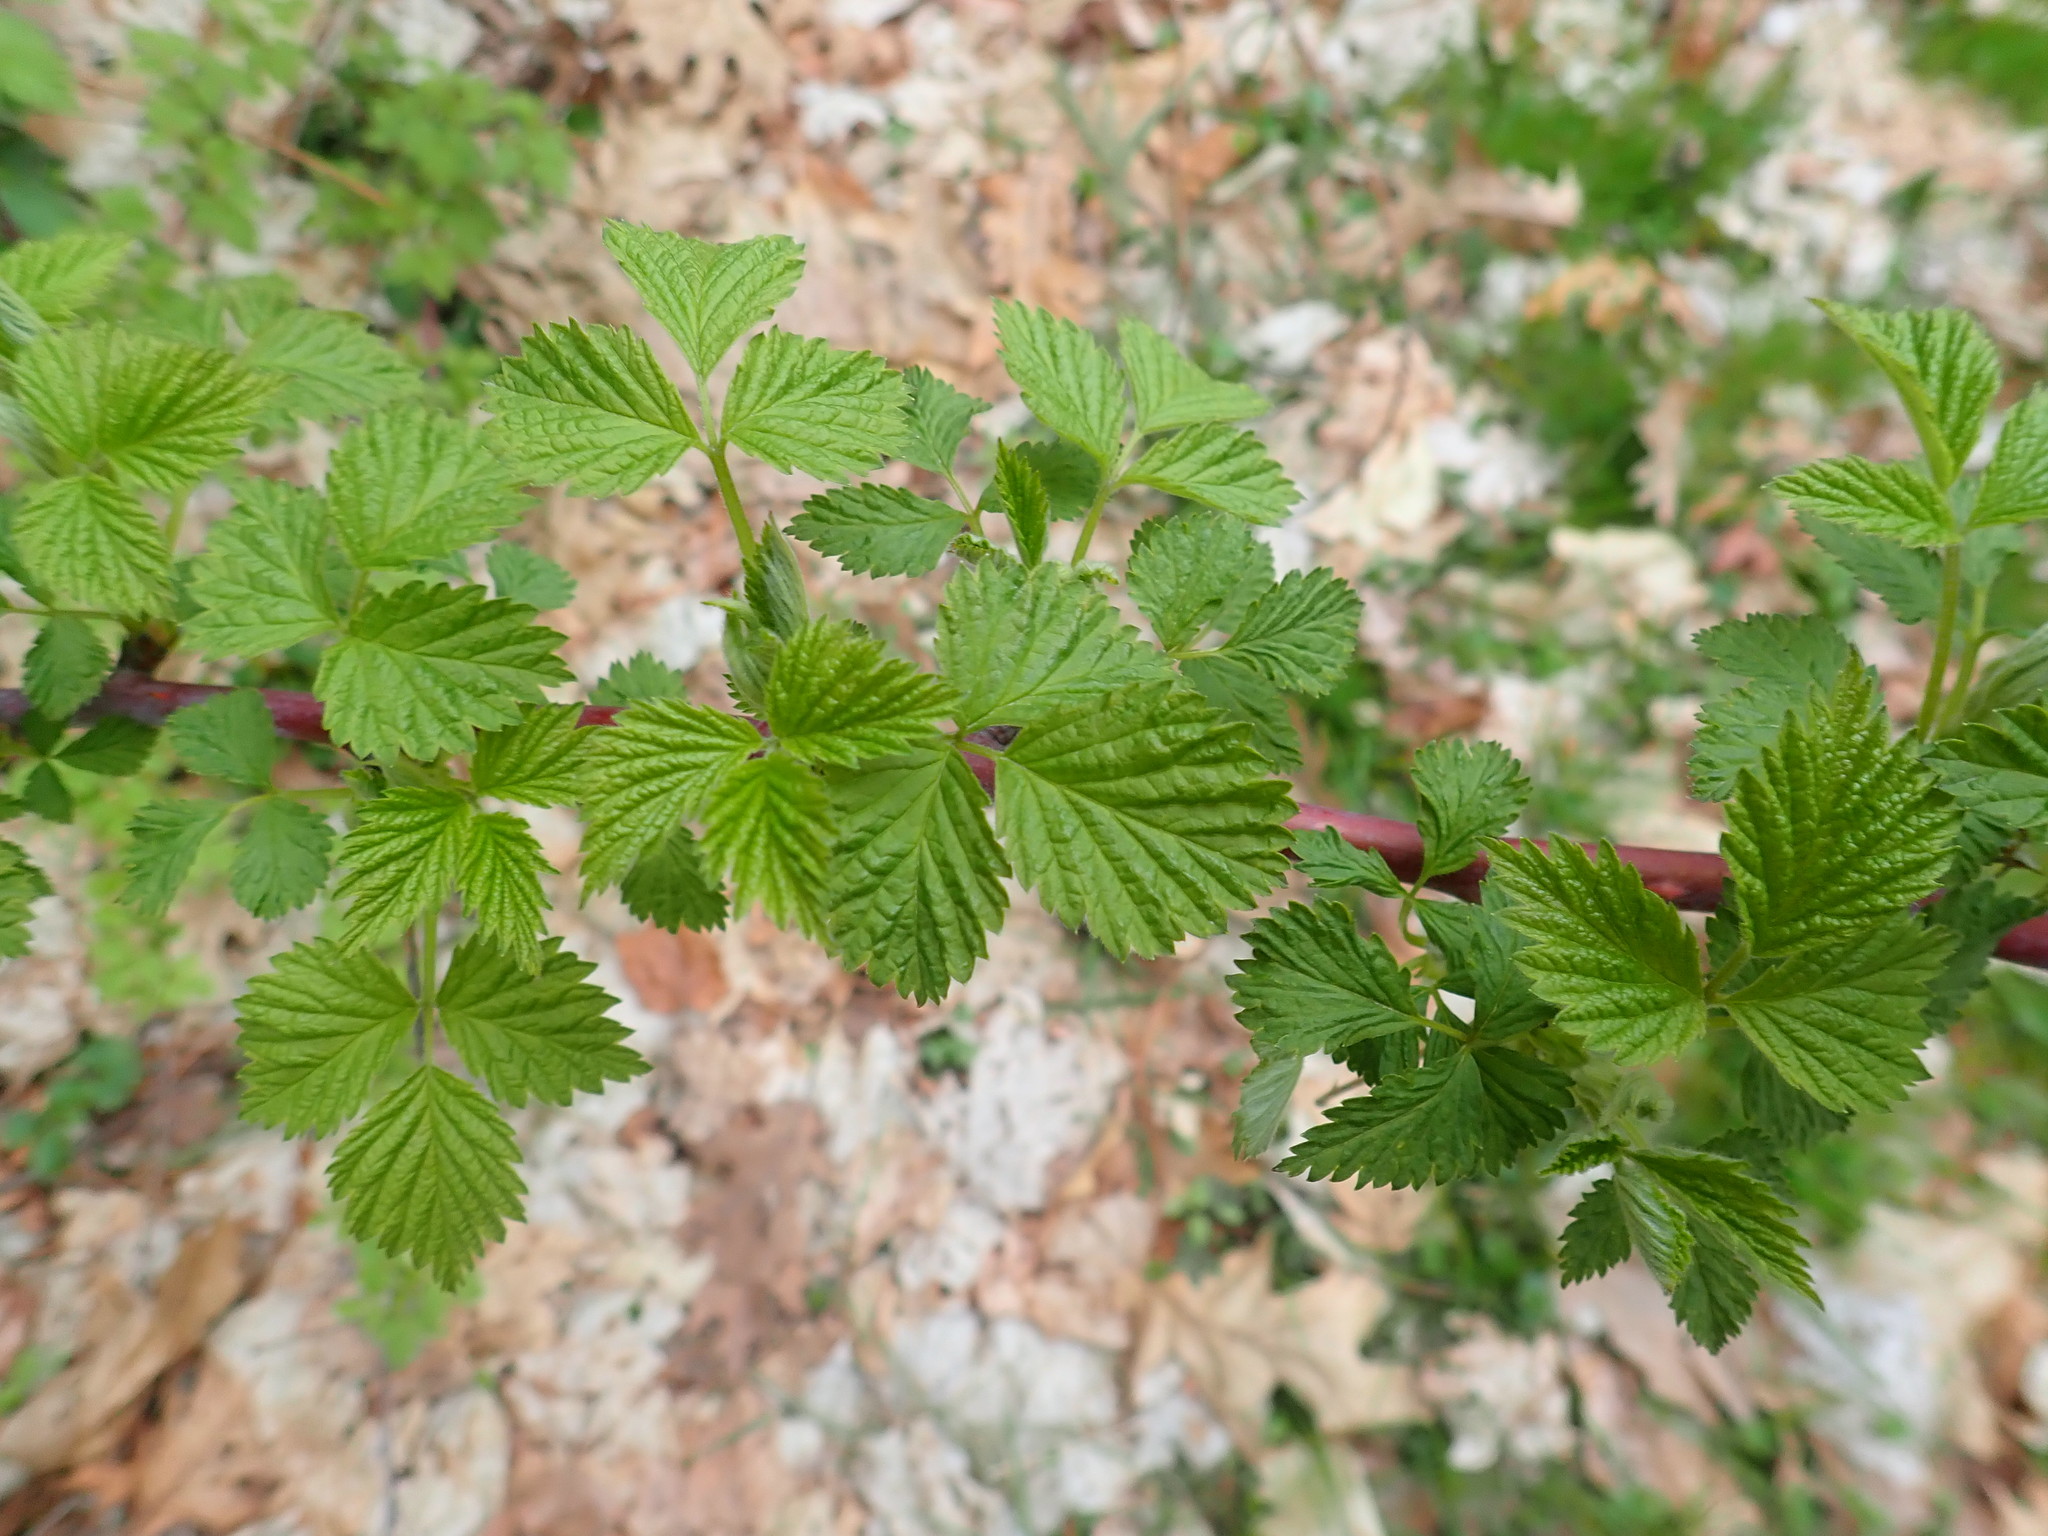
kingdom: Plantae
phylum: Tracheophyta
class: Magnoliopsida
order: Rosales
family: Rosaceae
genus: Rubus
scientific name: Rubus occidentalis
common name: Black raspberry
